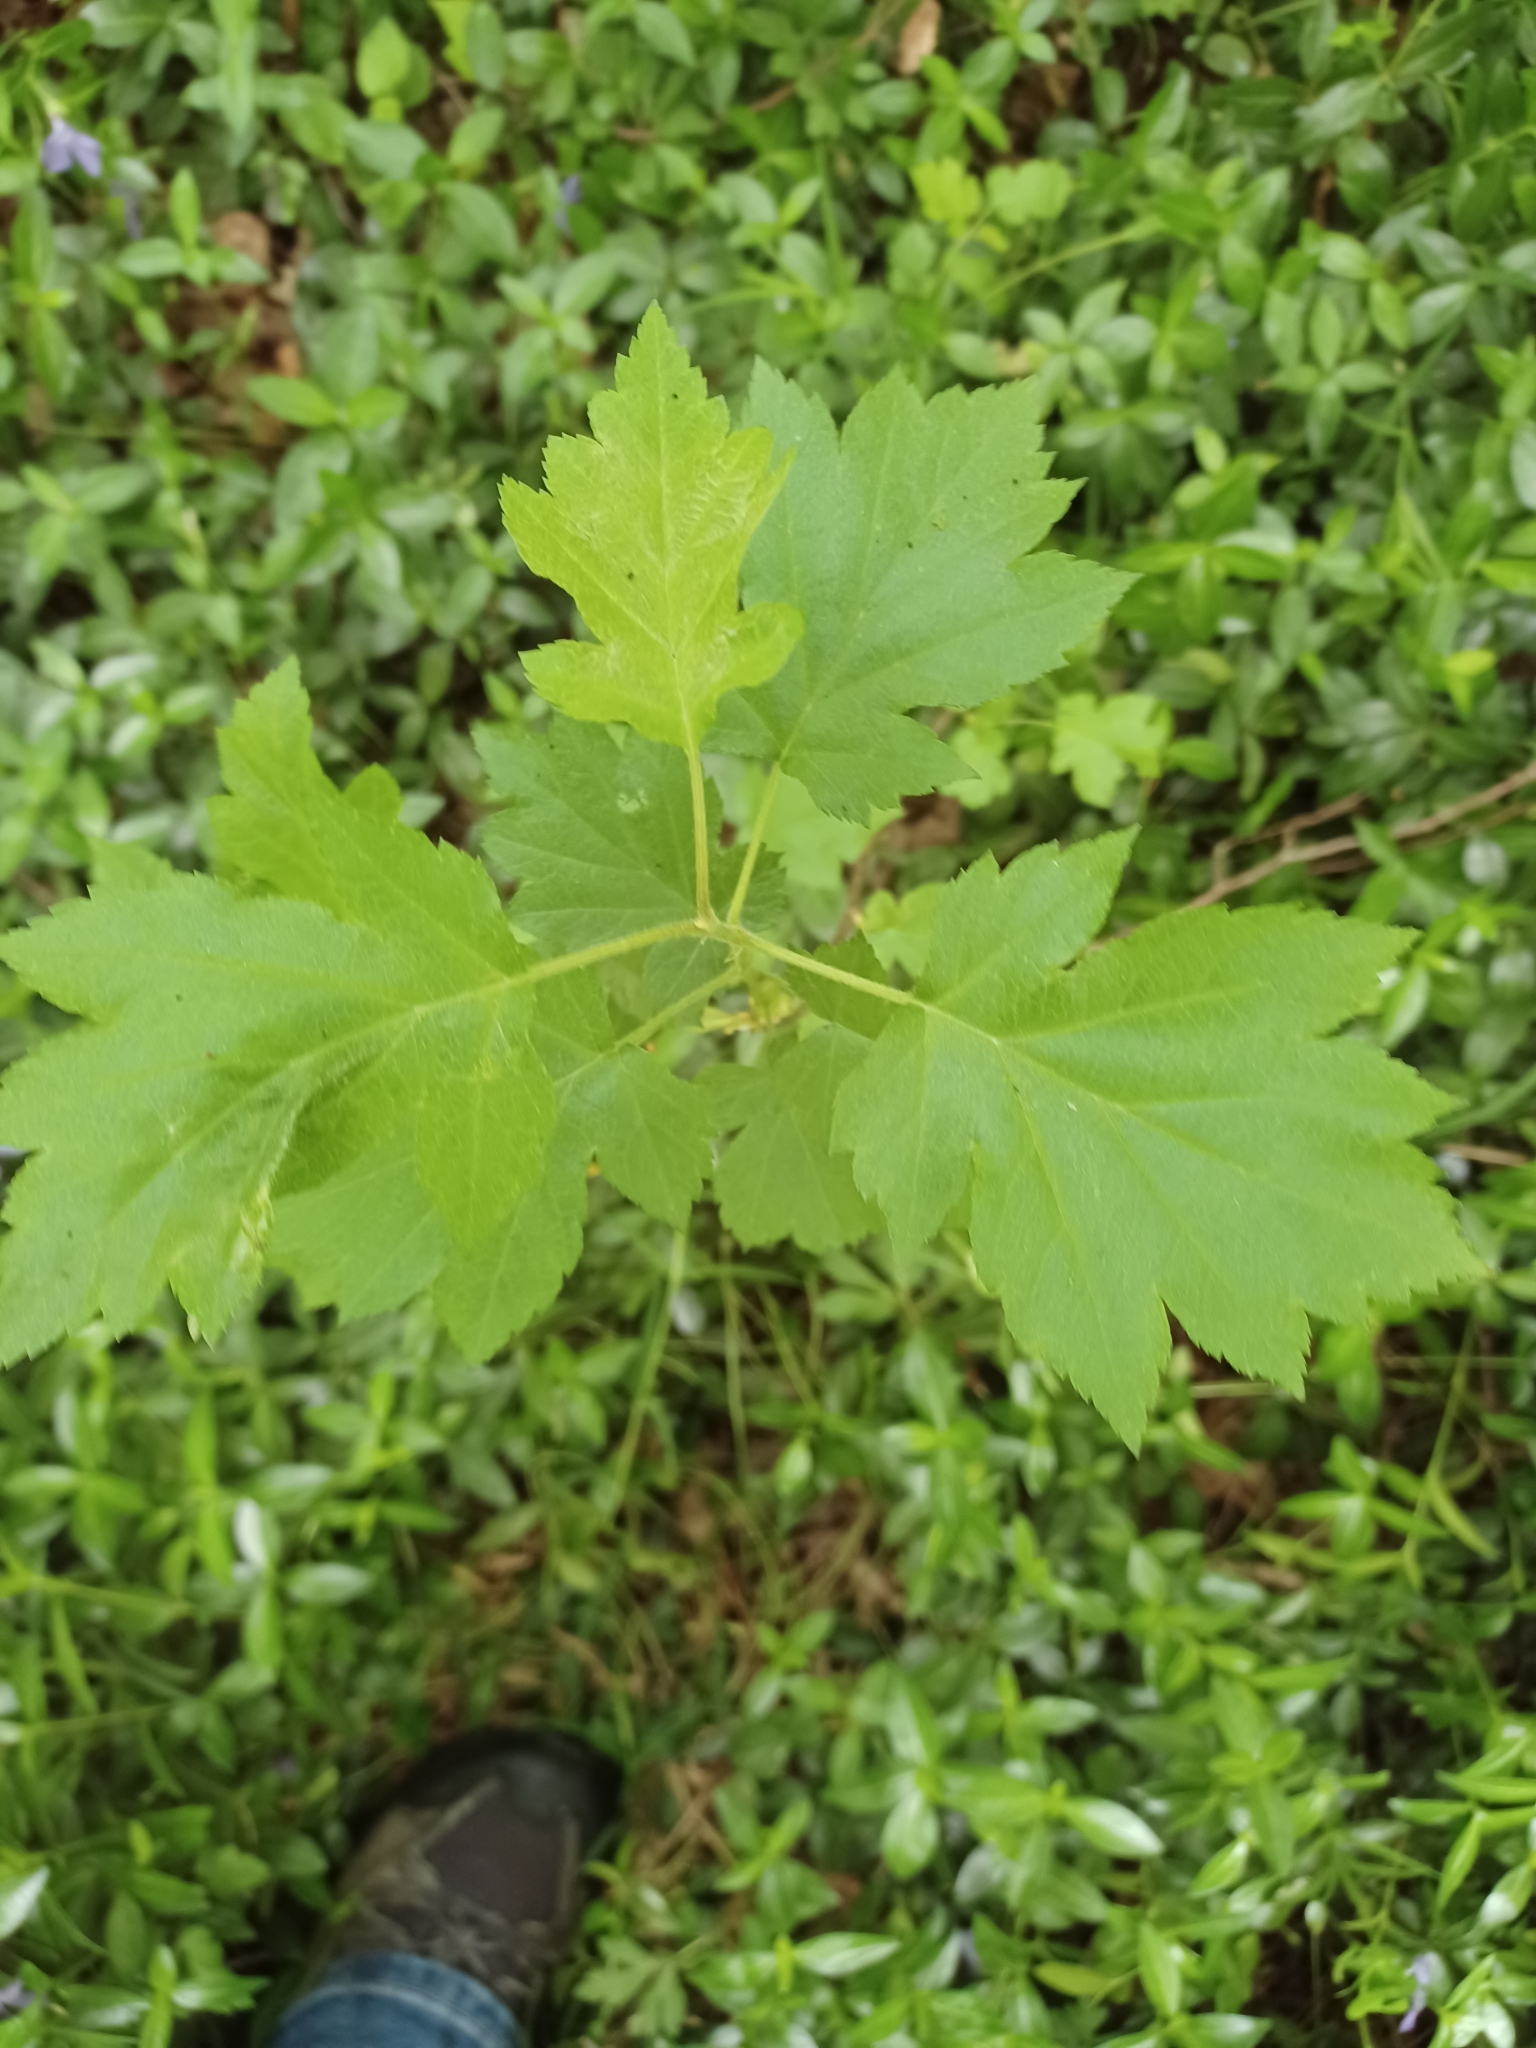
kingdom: Plantae
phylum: Tracheophyta
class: Magnoliopsida
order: Rosales
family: Rosaceae
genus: Torminalis
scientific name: Torminalis glaberrima
